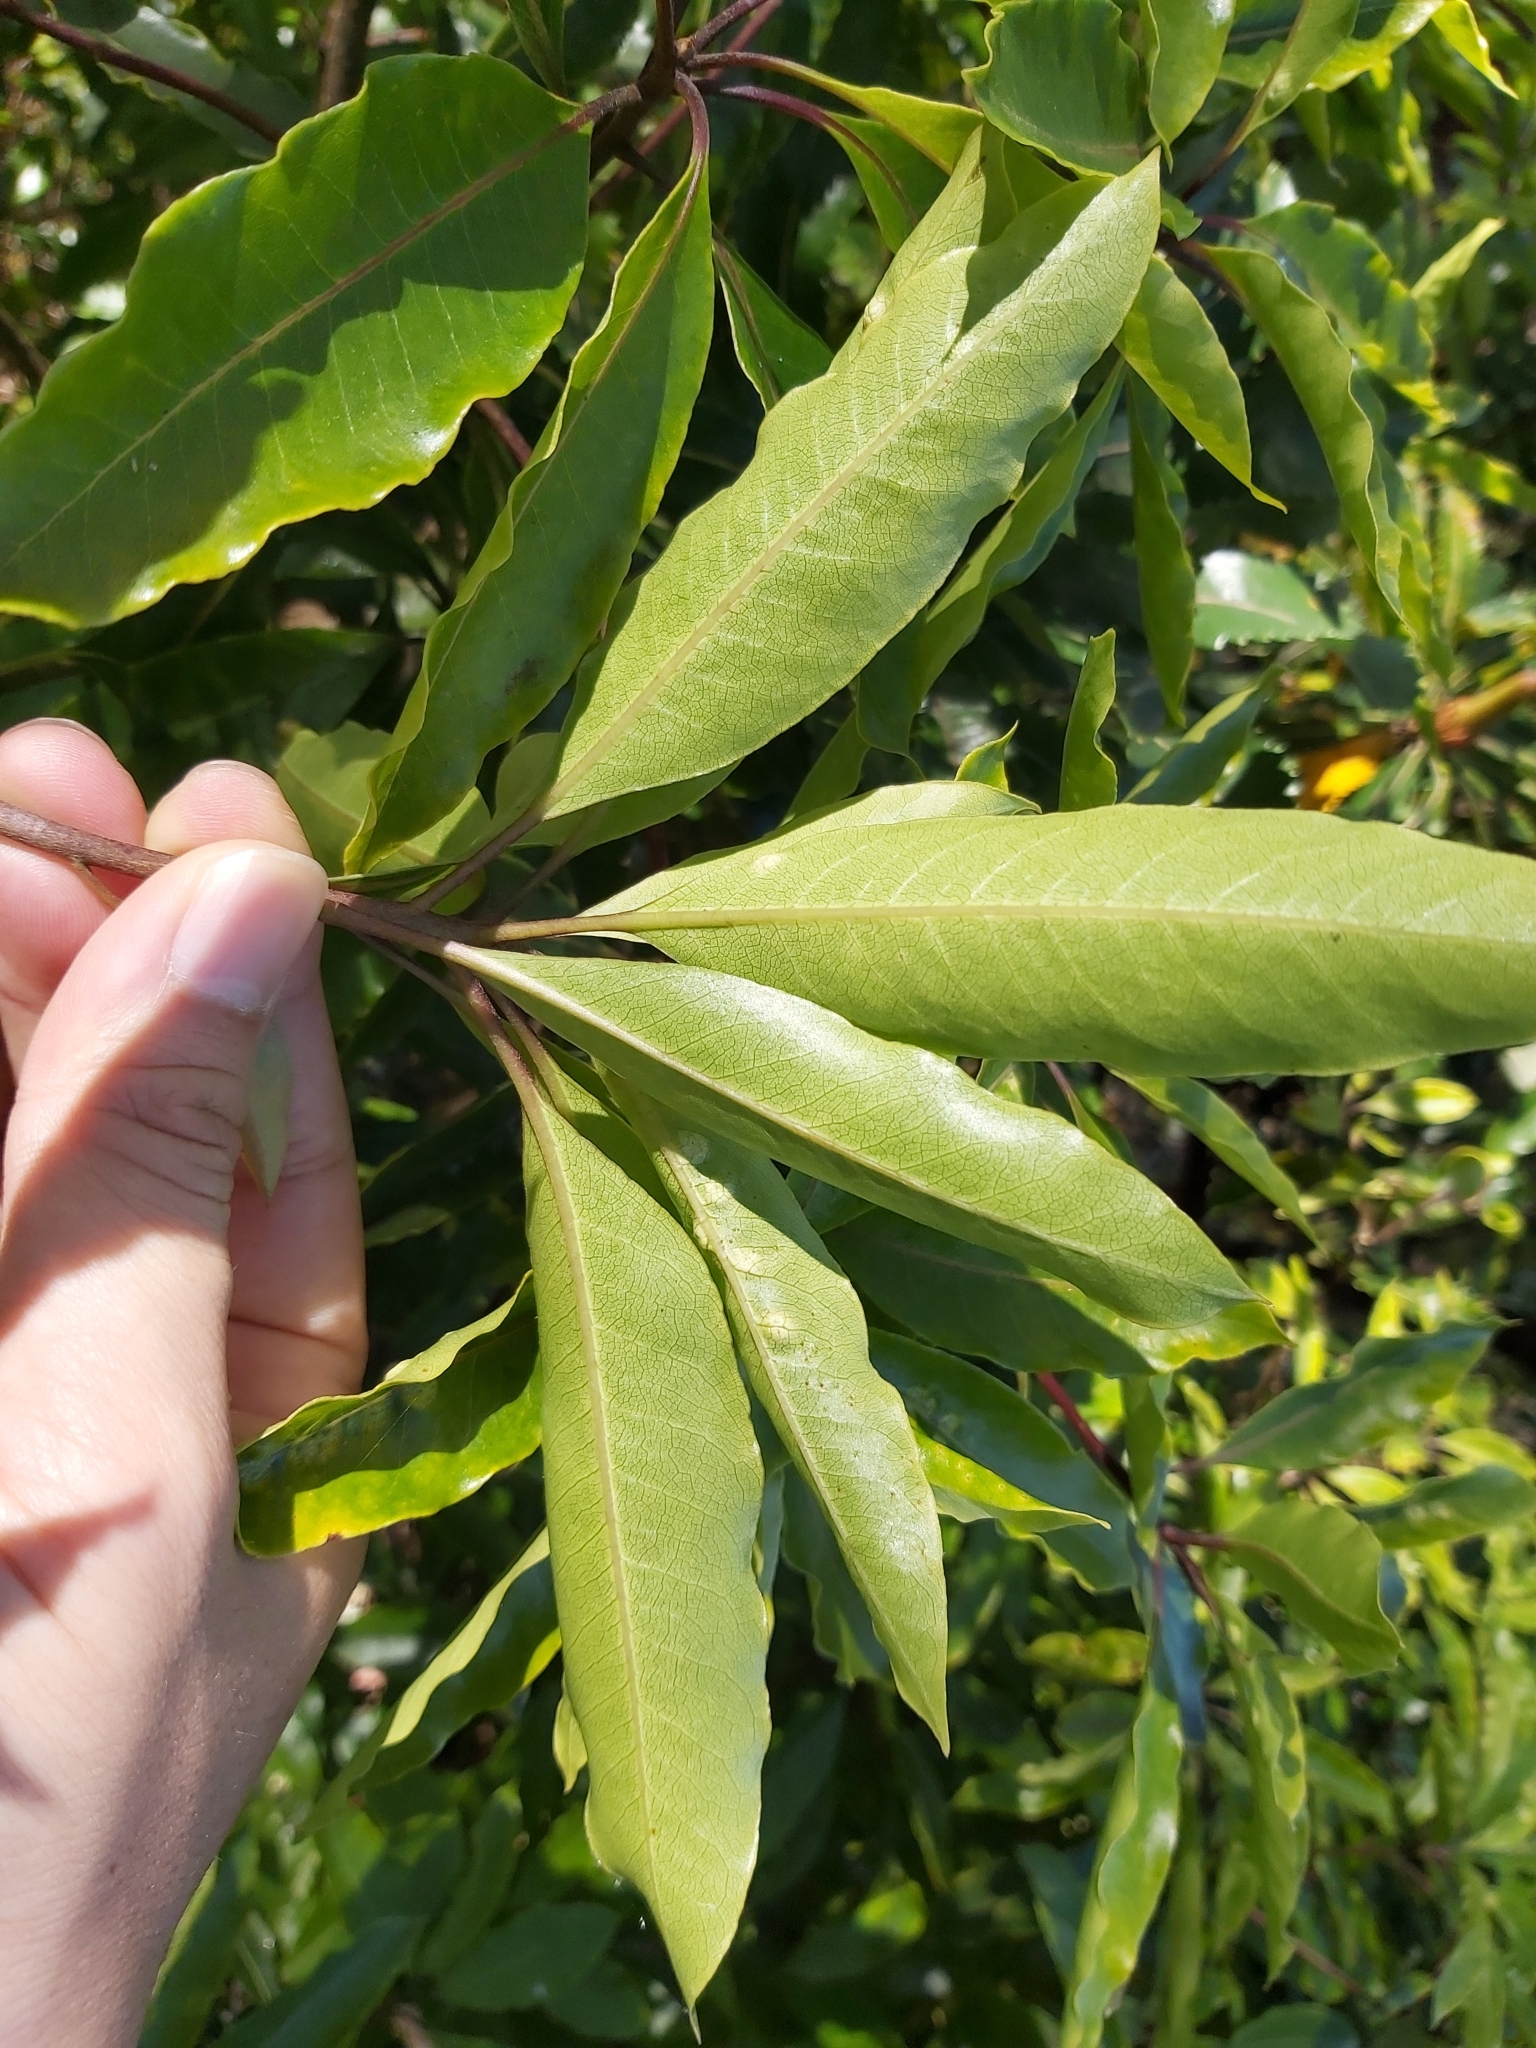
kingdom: Plantae
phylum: Tracheophyta
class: Magnoliopsida
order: Apiales
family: Pittosporaceae
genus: Pittosporum
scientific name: Pittosporum undulatum
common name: Australian cheesewood
